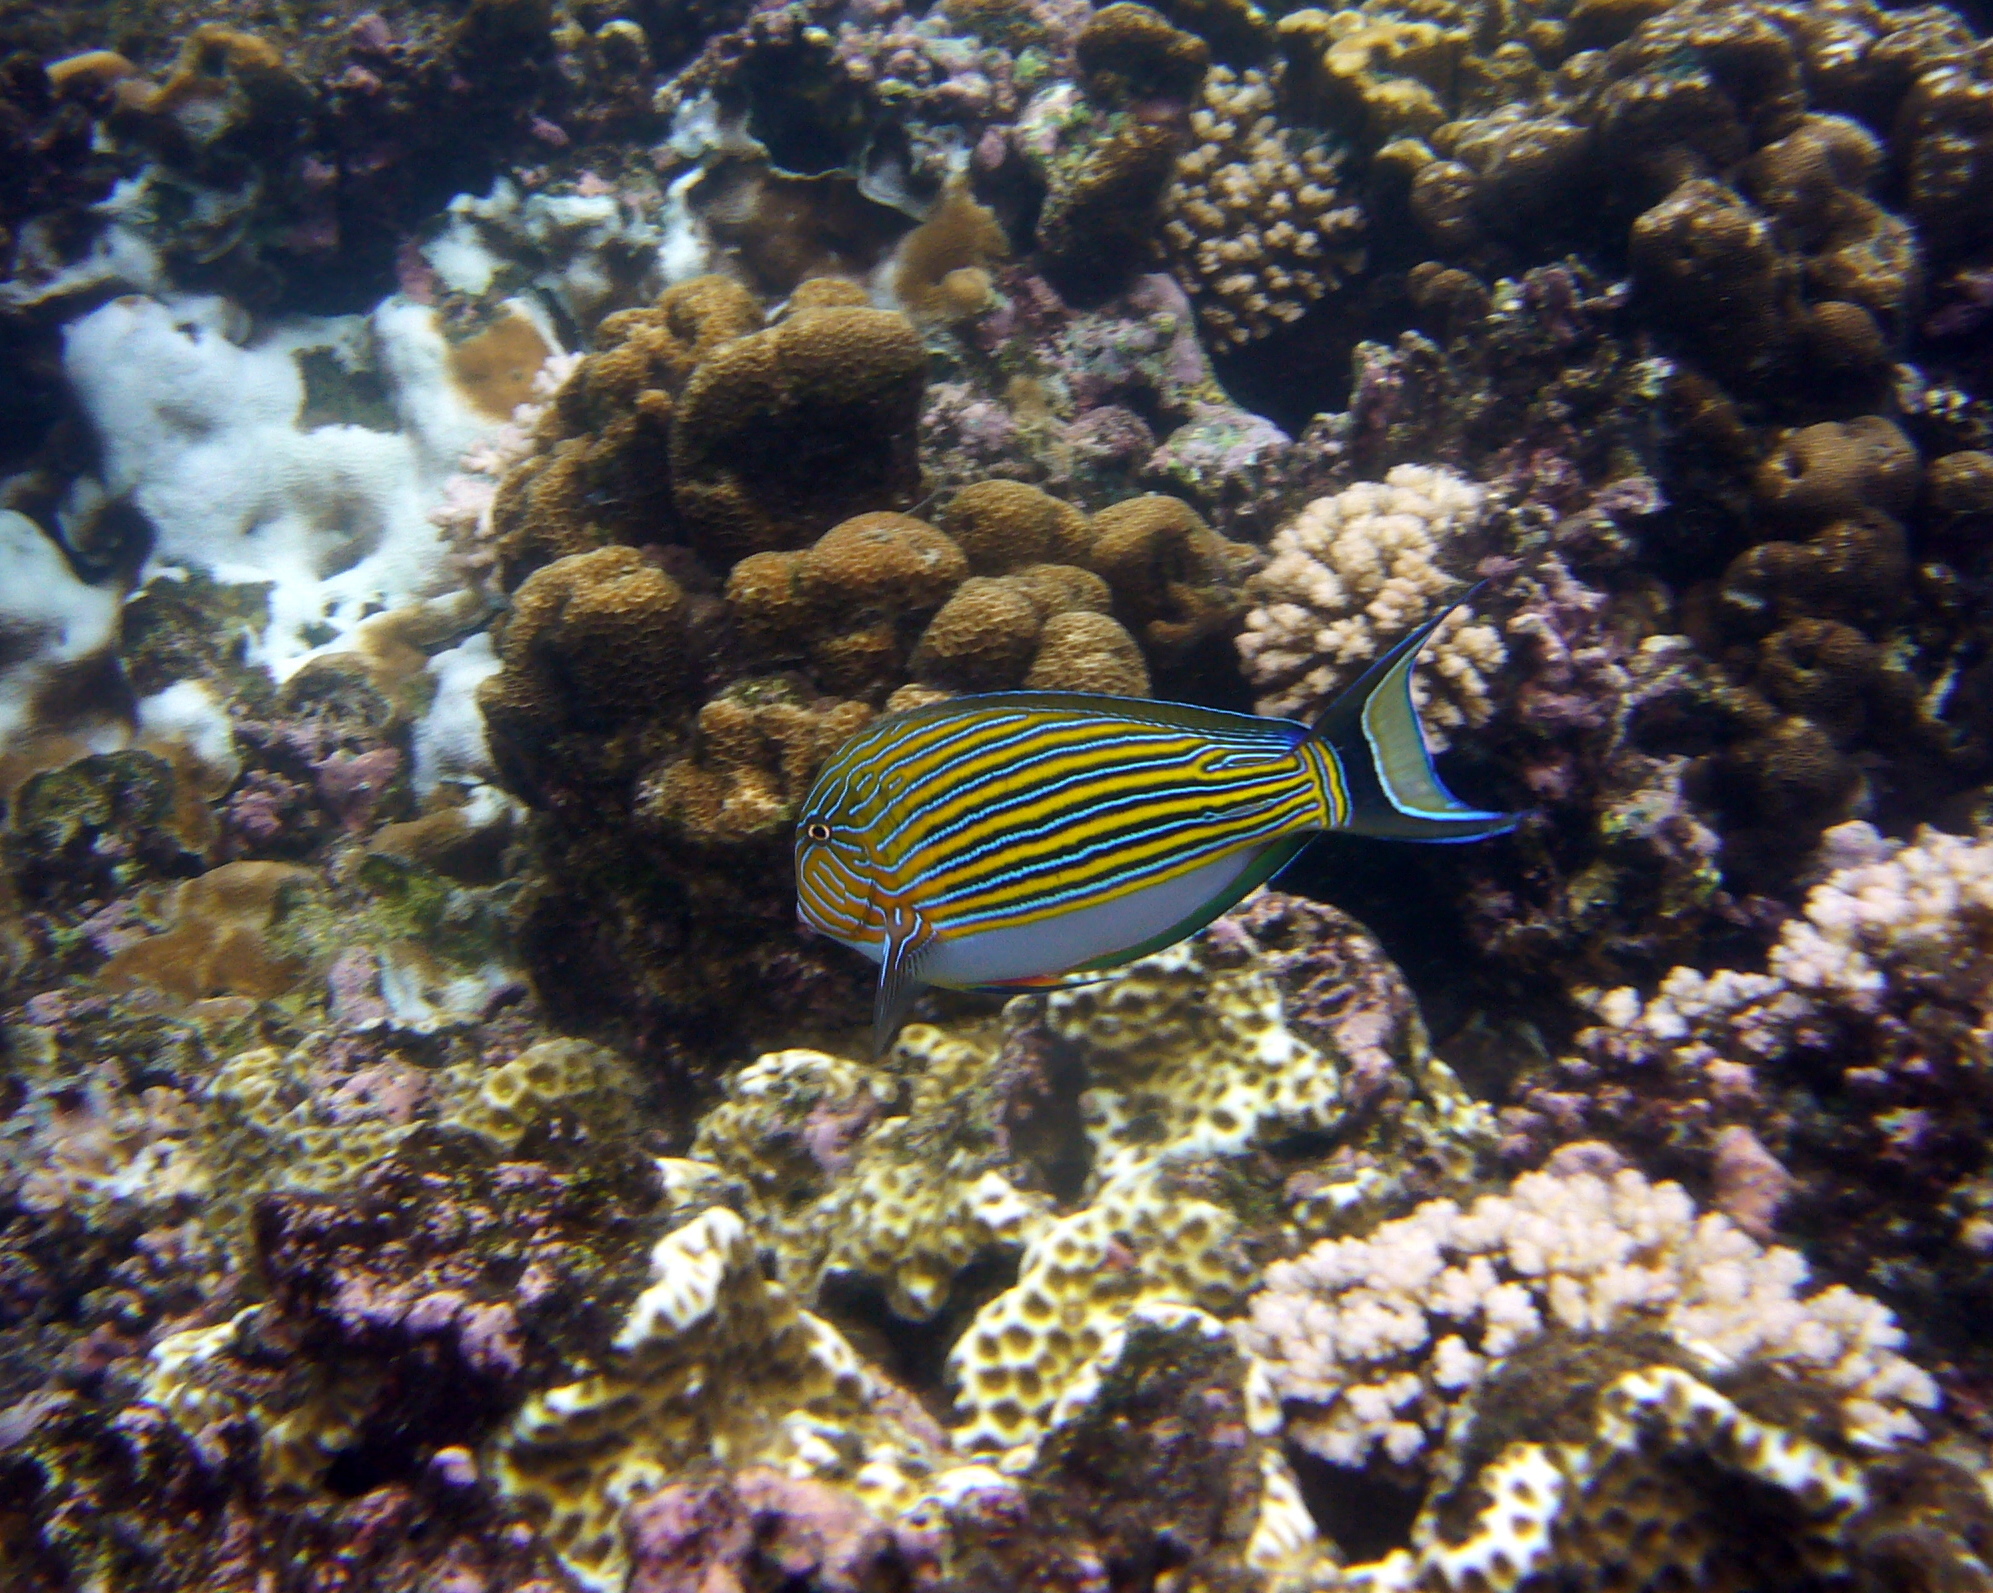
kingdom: Animalia
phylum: Chordata
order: Perciformes
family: Acanthuridae
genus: Acanthurus
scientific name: Acanthurus lineatus
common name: Striped surgeonfish
